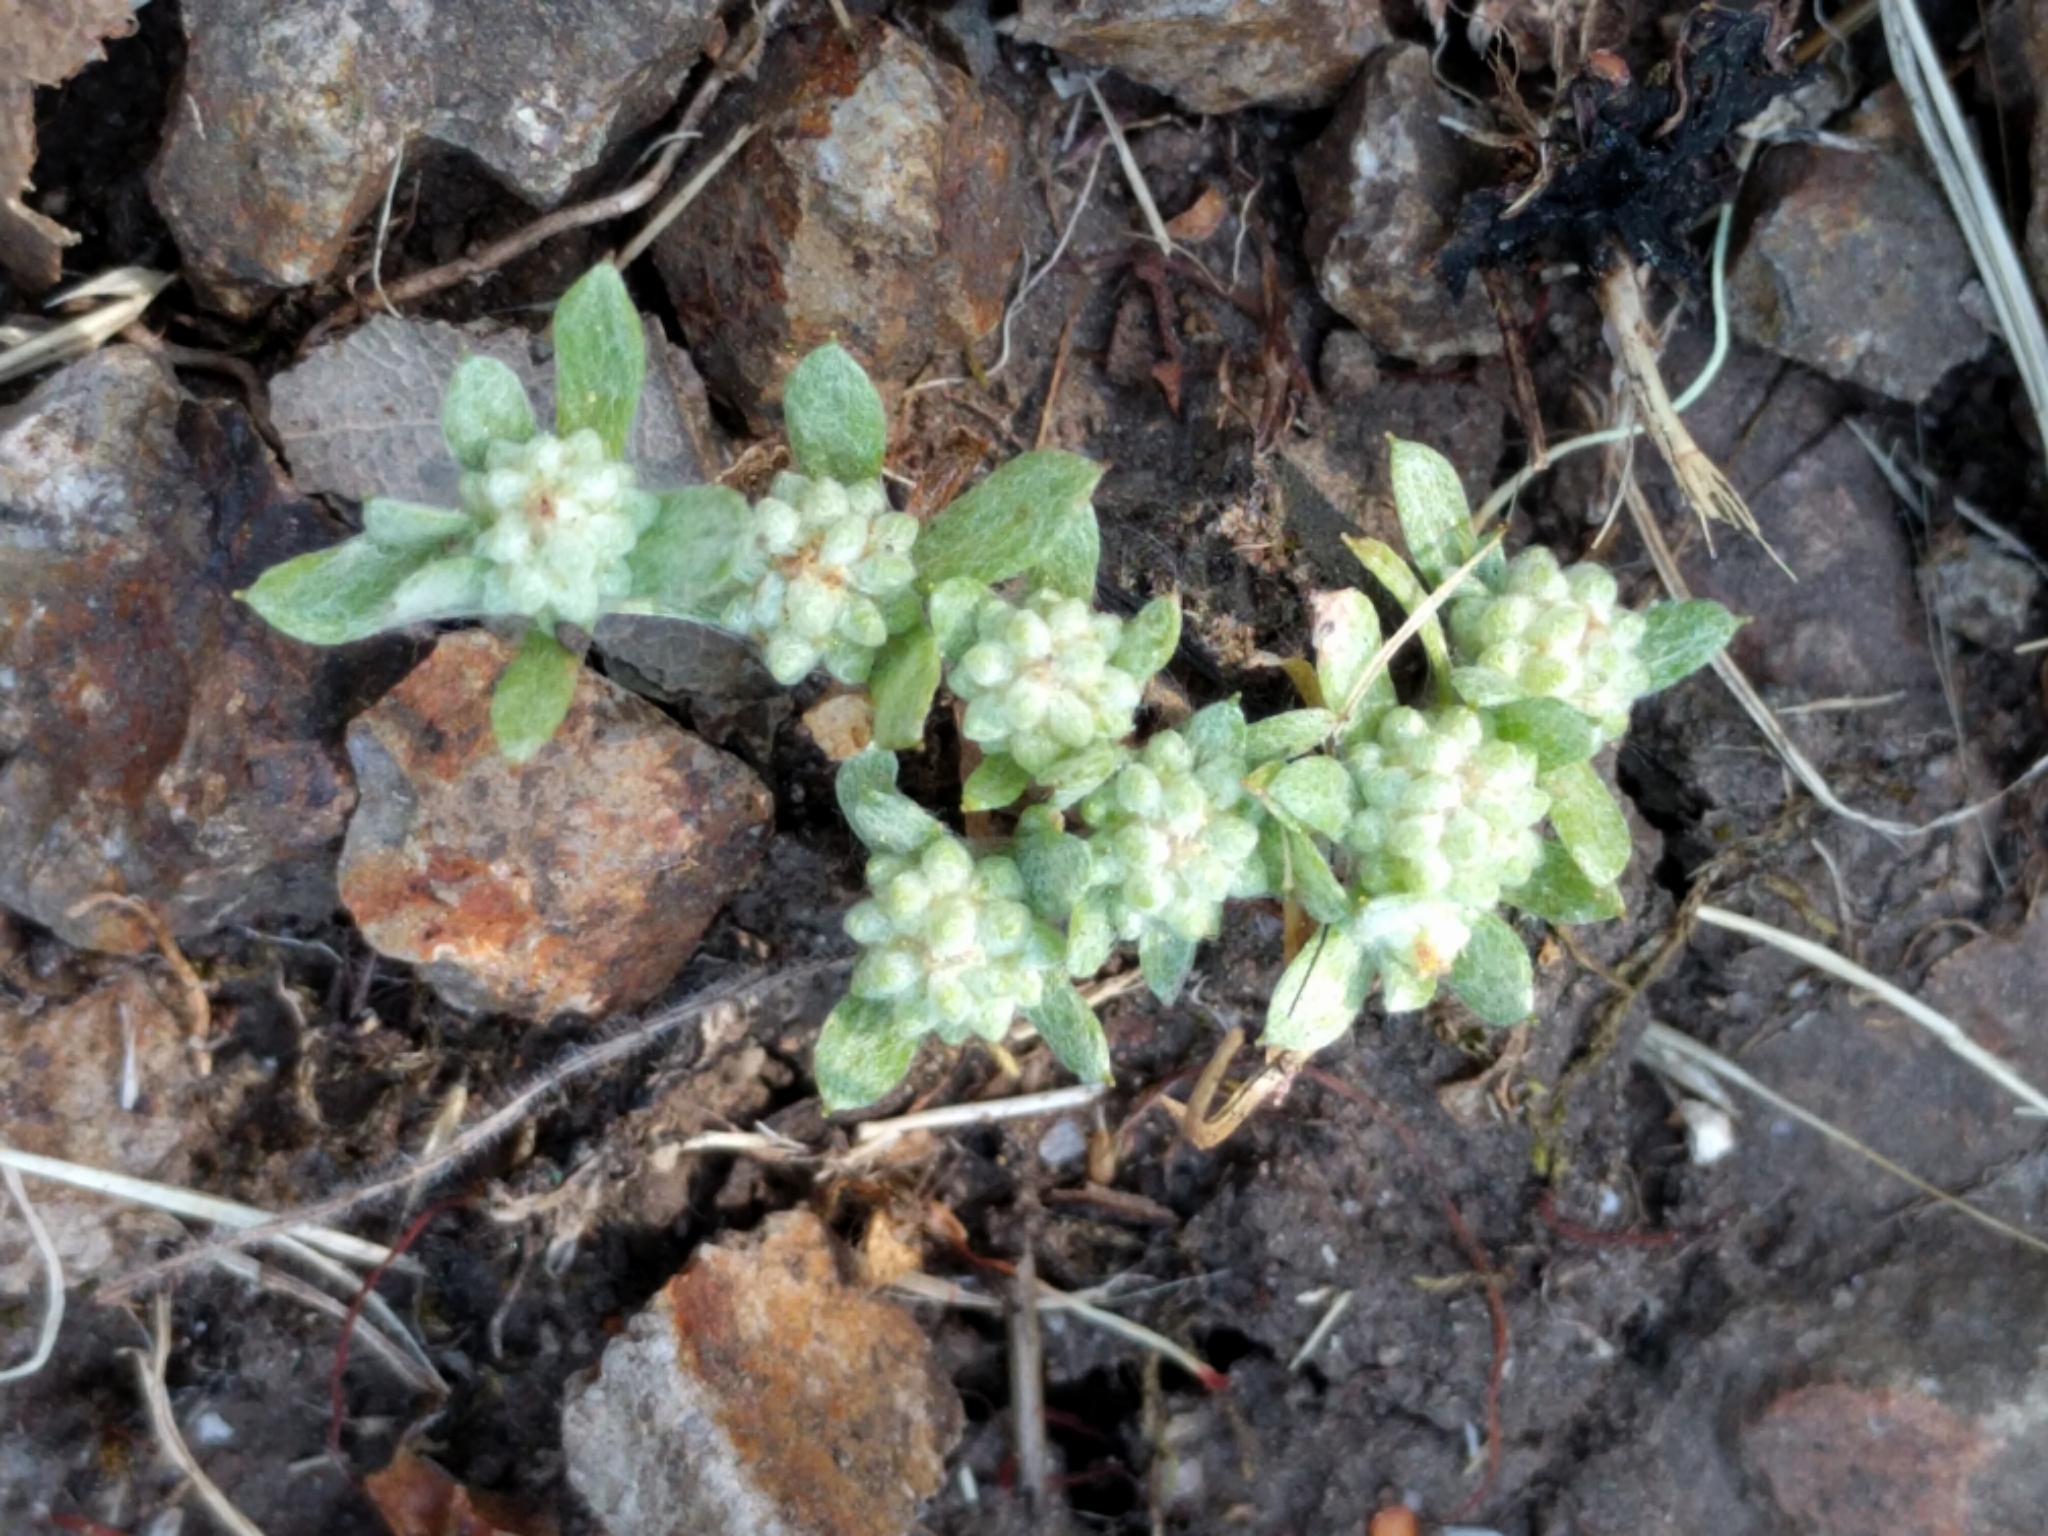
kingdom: Plantae
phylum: Tracheophyta
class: Magnoliopsida
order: Asterales
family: Asteraceae
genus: Psilocarphus
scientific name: Psilocarphus tenellus
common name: Slender woolly-marbles
